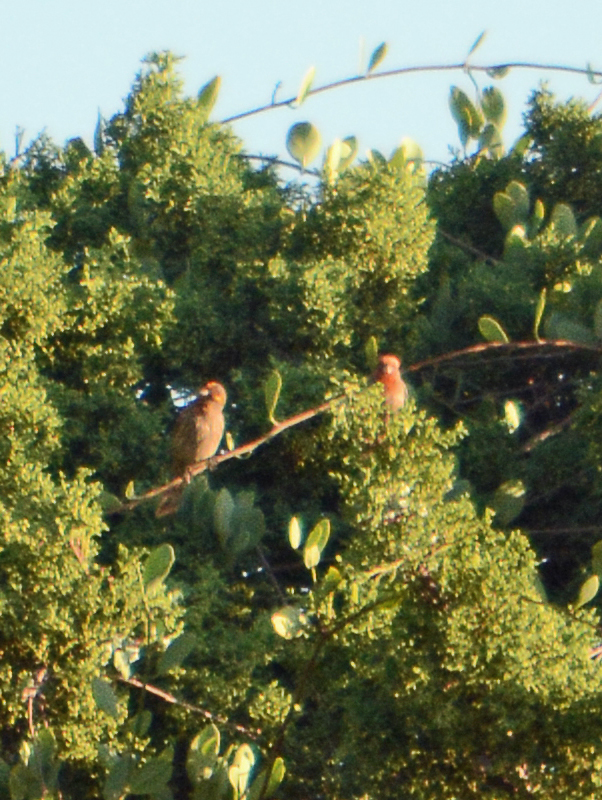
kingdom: Animalia
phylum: Chordata
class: Aves
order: Passeriformes
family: Fringillidae
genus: Haemorhous
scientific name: Haemorhous mexicanus
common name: House finch
